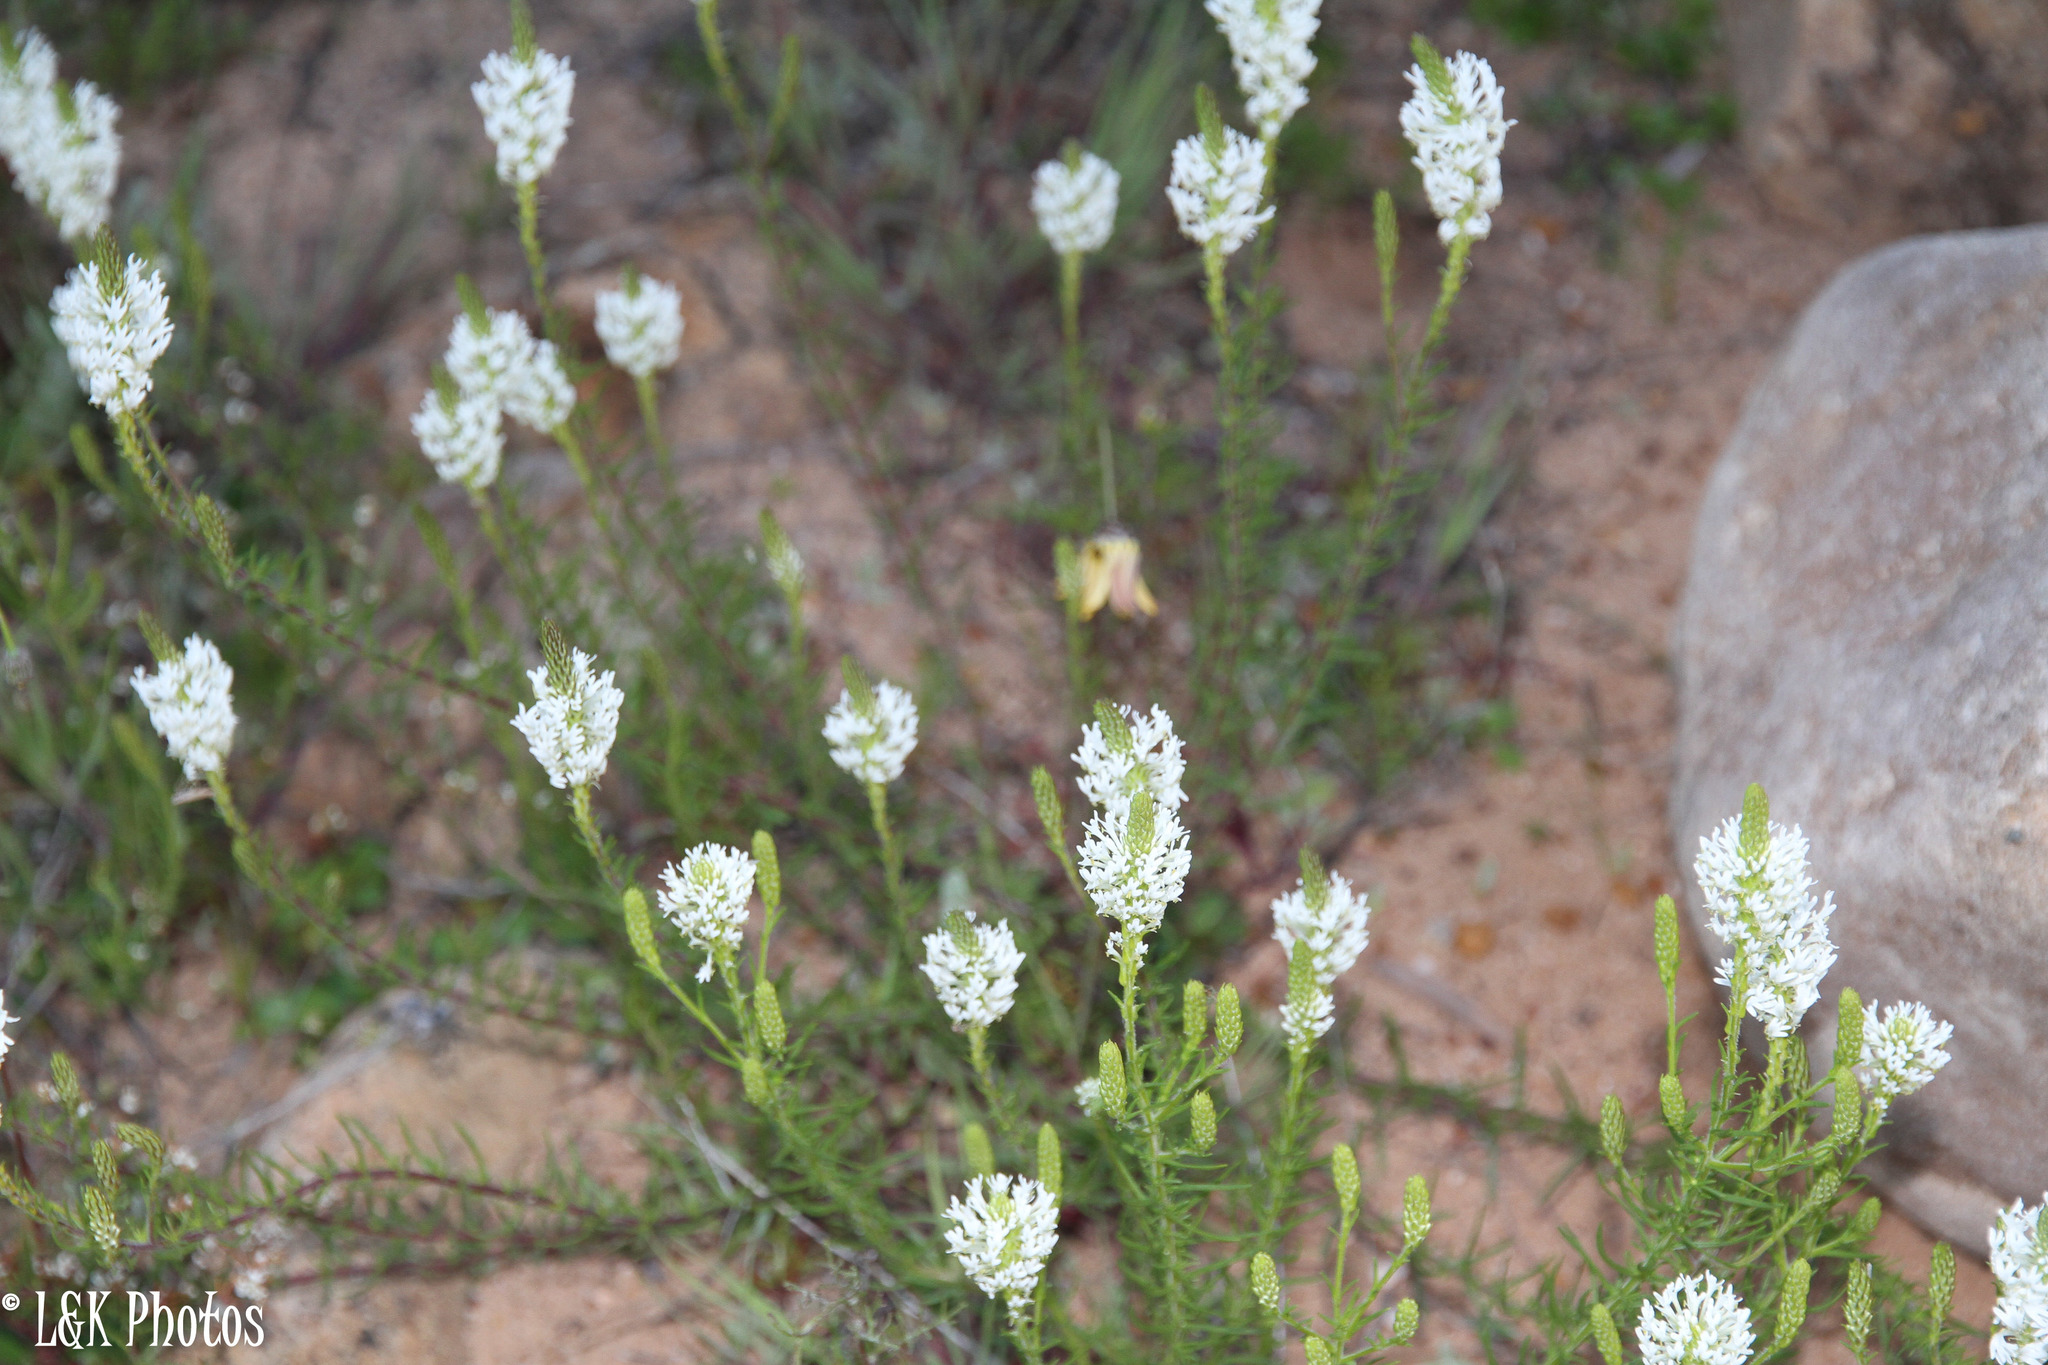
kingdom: Plantae
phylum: Tracheophyta
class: Magnoliopsida
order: Lamiales
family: Scrophulariaceae
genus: Dischisma
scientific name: Dischisma ciliatum
